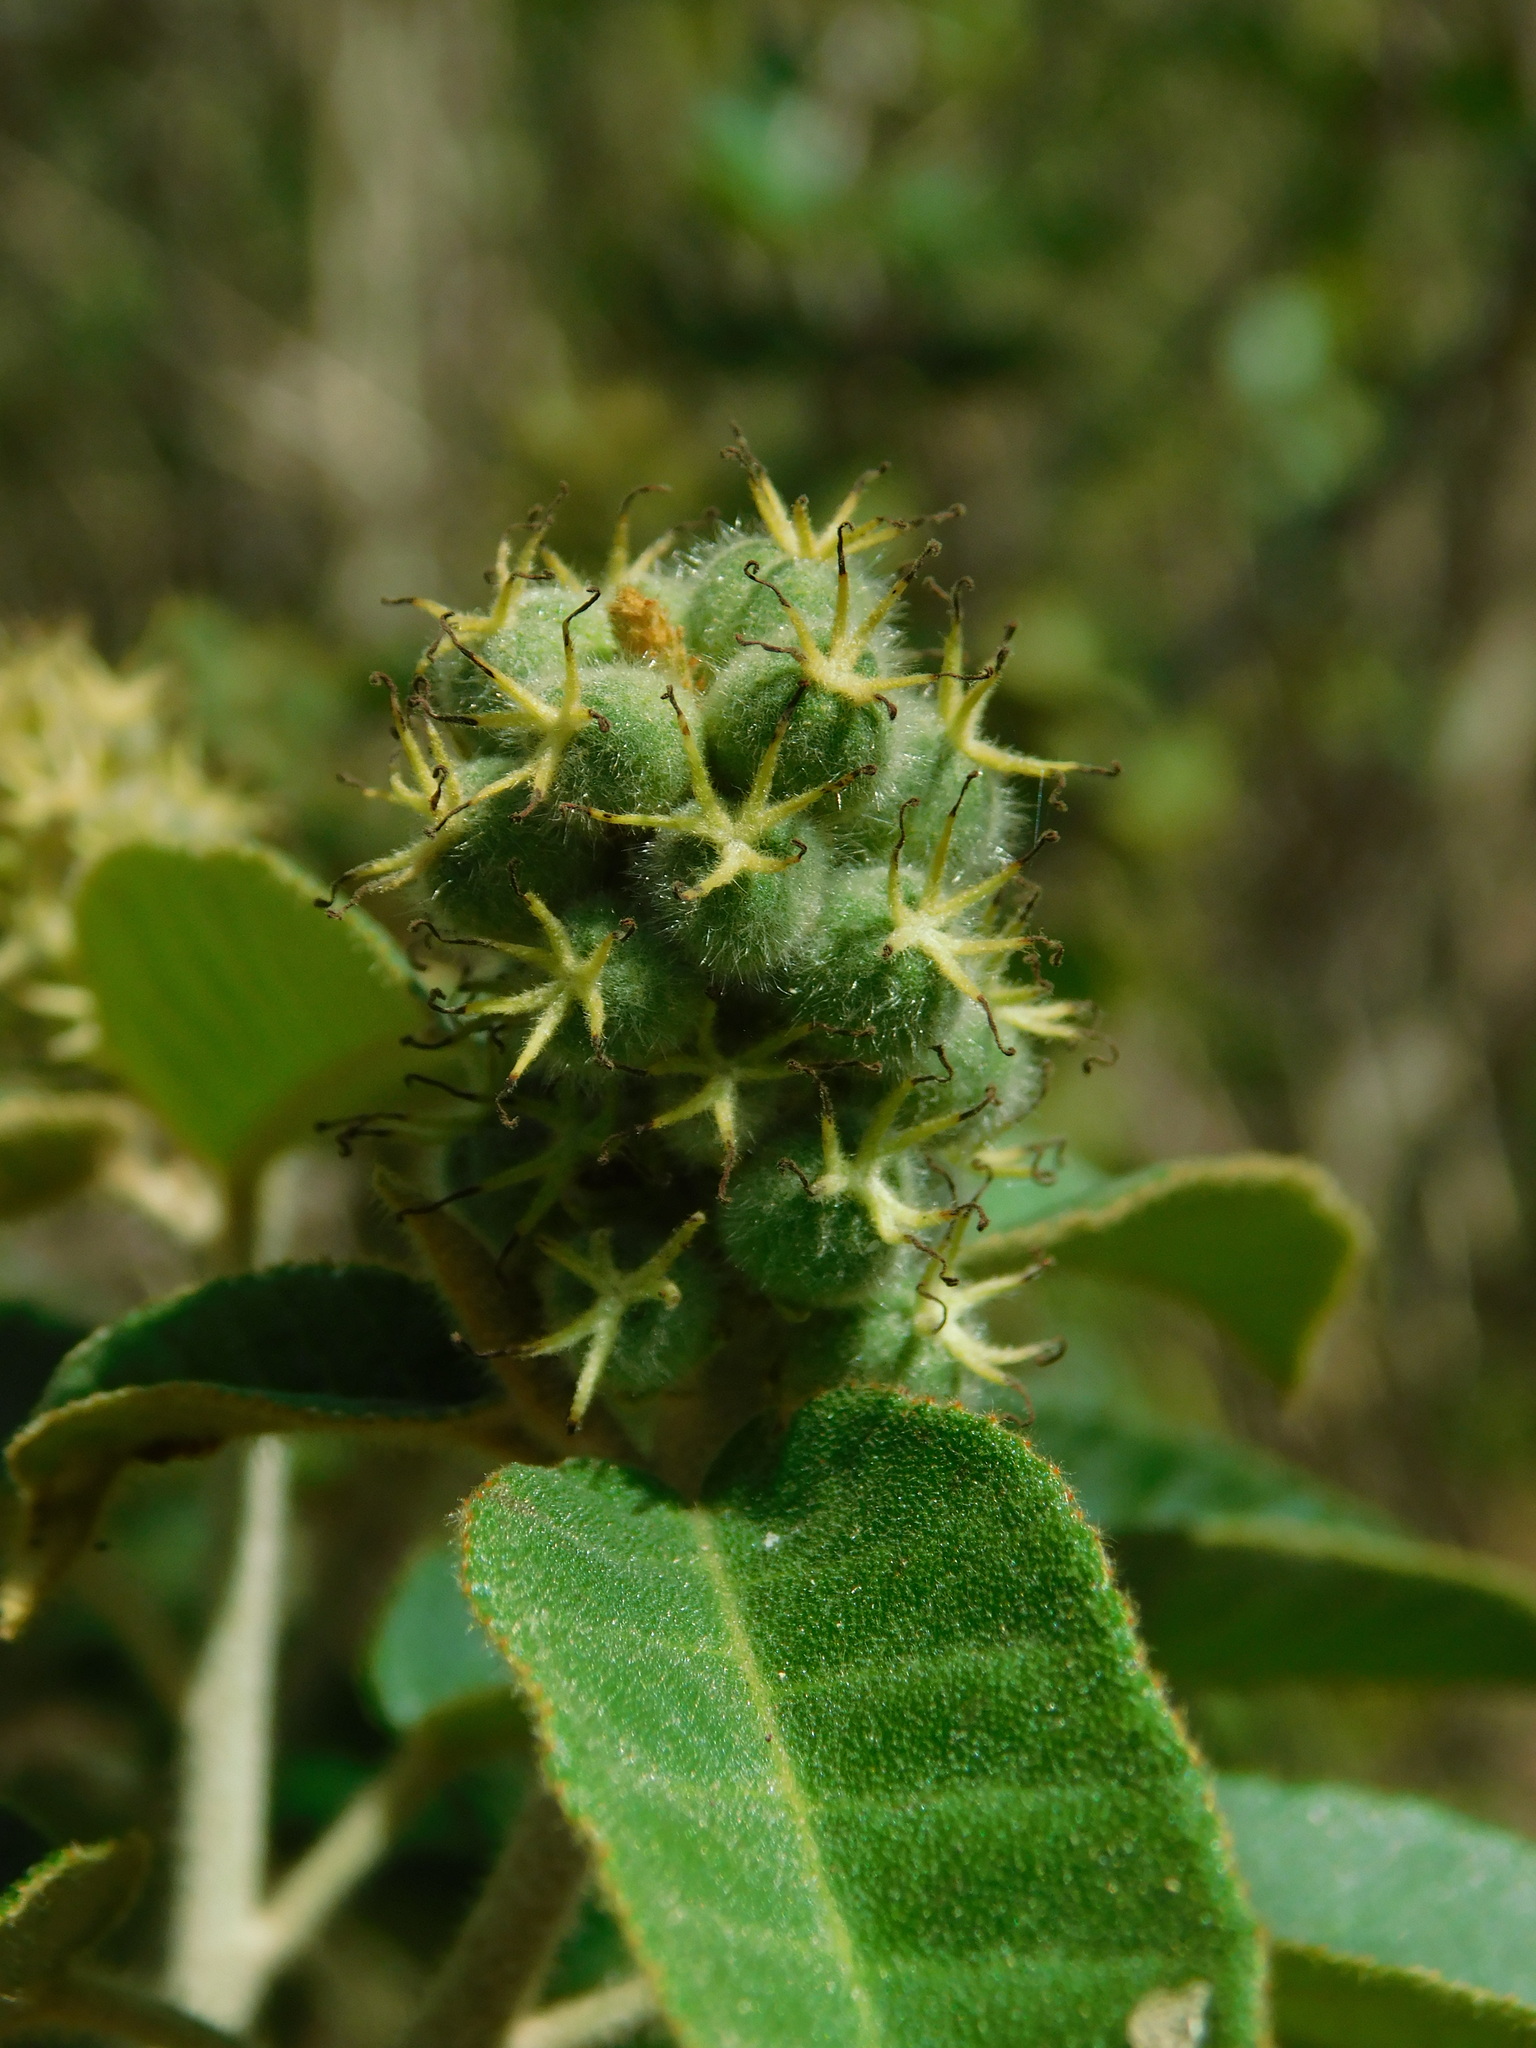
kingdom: Plantae
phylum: Tracheophyta
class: Magnoliopsida
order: Malpighiales
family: Euphorbiaceae
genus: Croton
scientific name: Croton cortesianus
